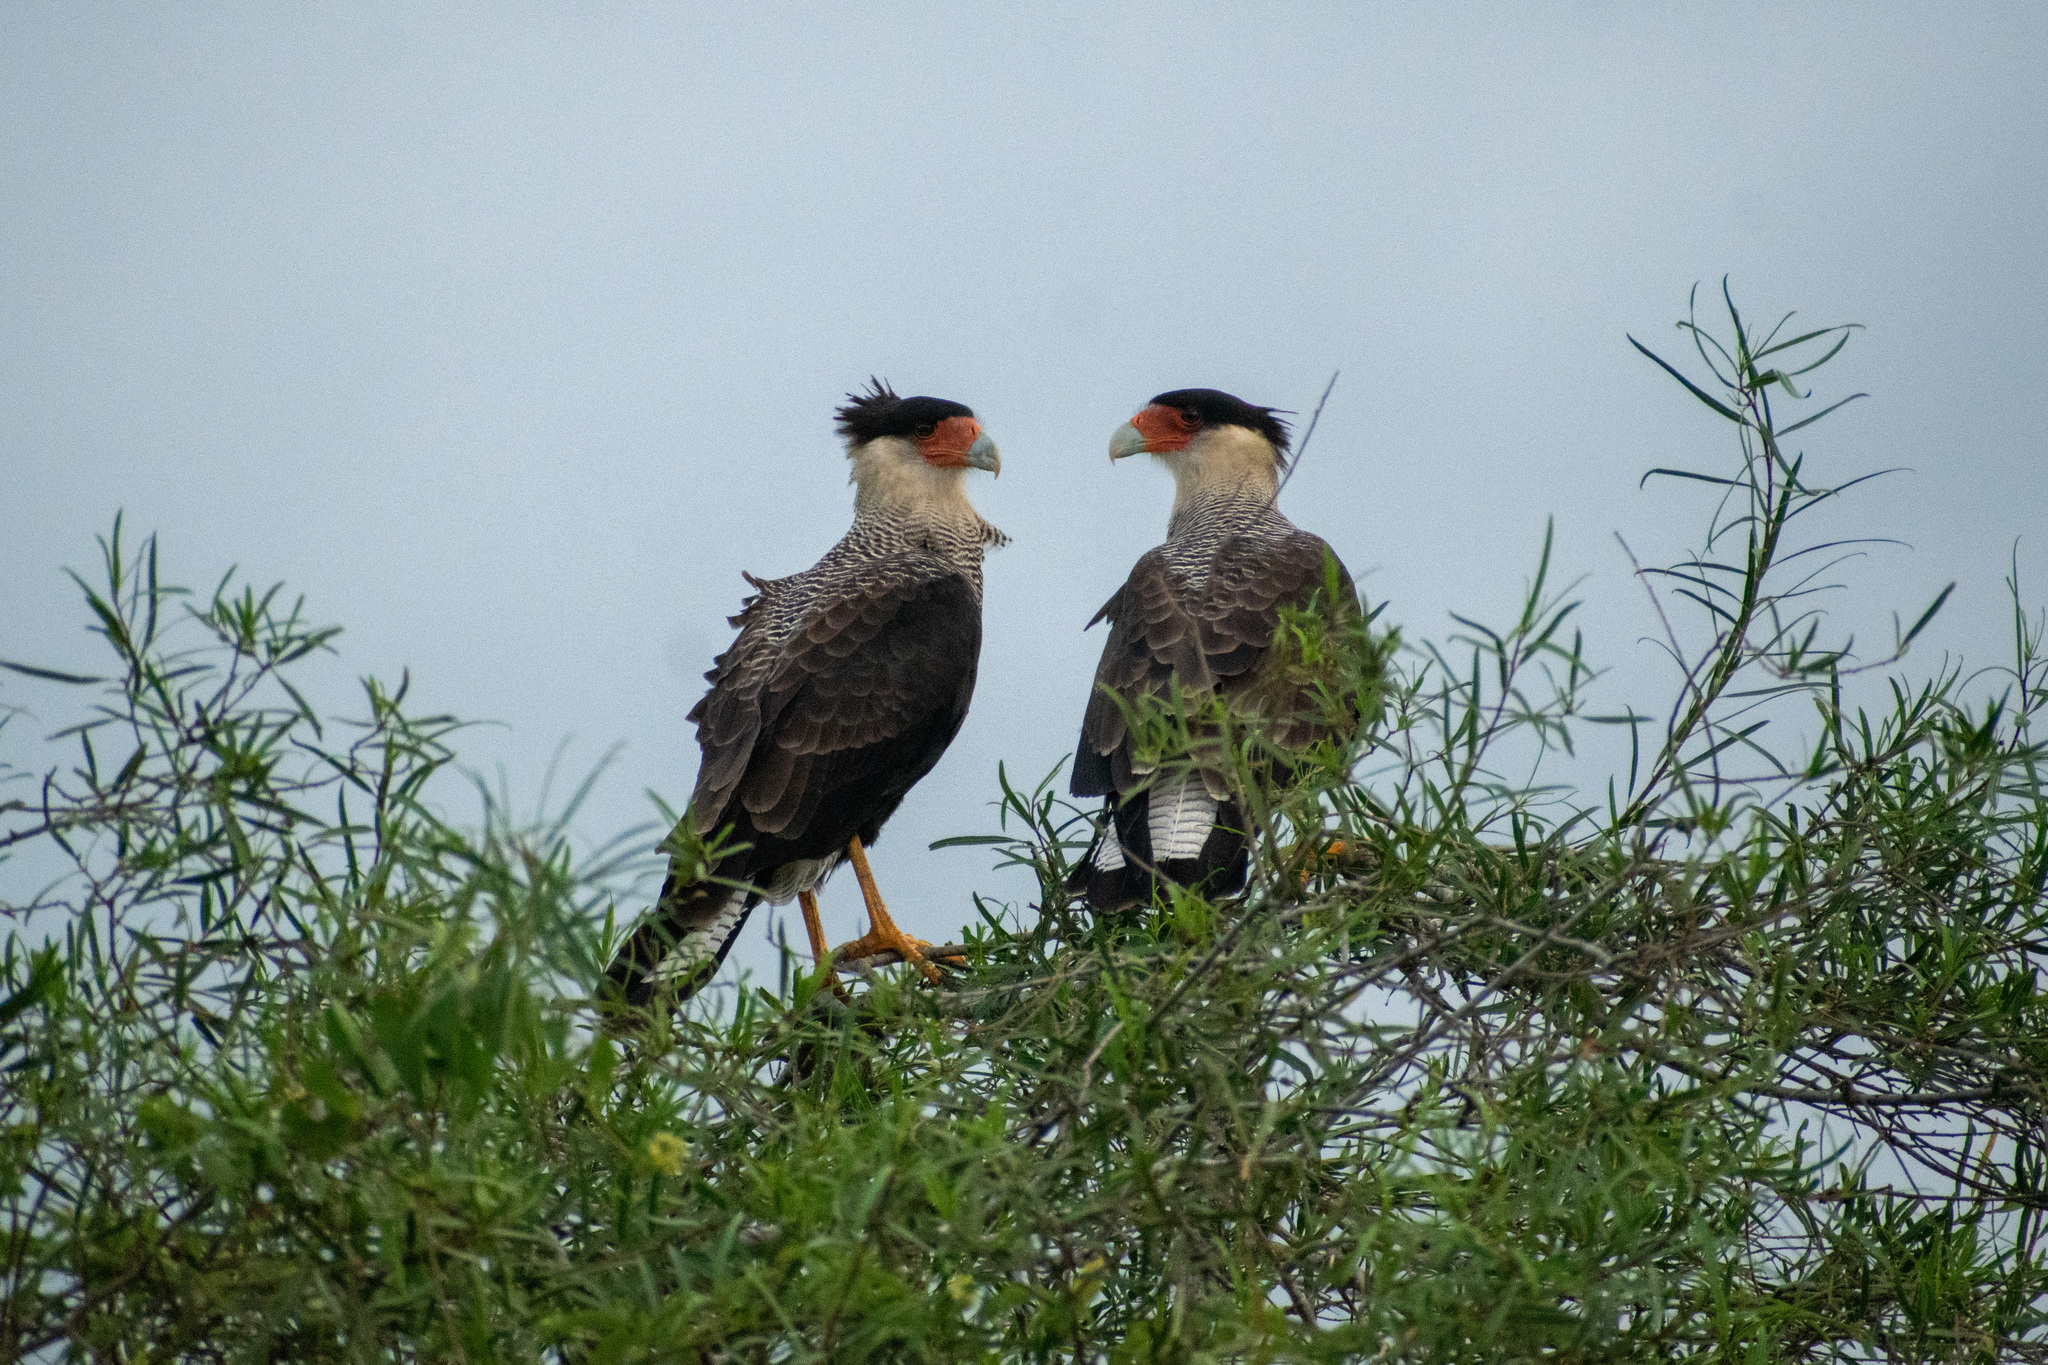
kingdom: Animalia
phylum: Chordata
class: Aves
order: Falconiformes
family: Falconidae
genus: Caracara
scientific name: Caracara plancus
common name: Southern caracara
